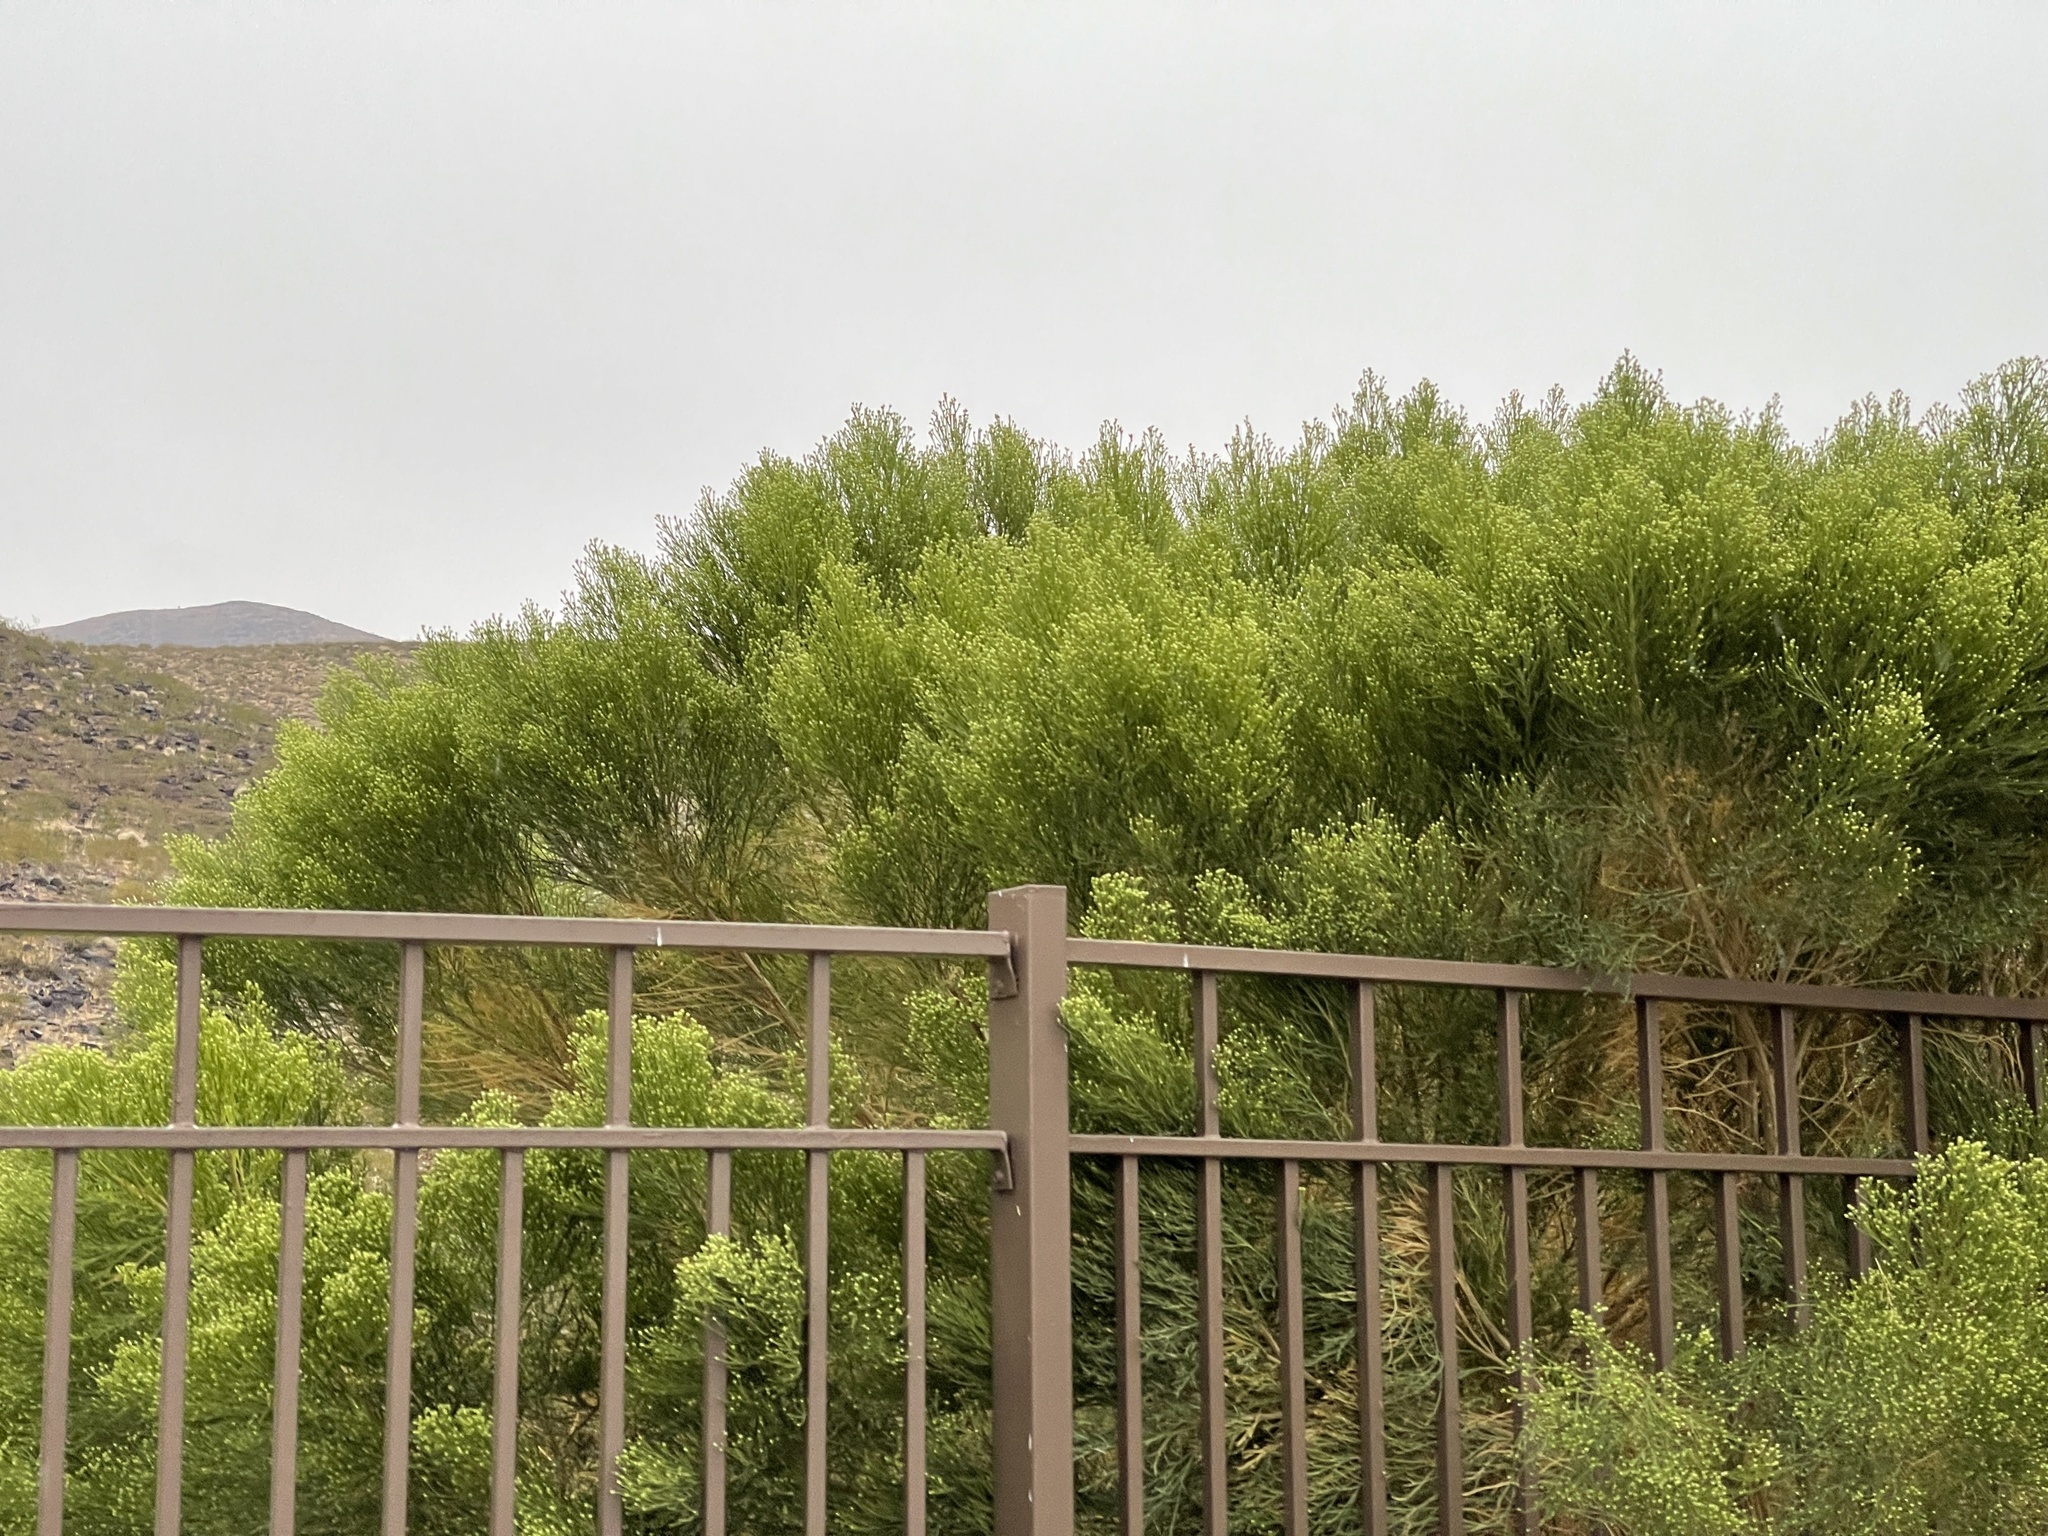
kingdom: Plantae
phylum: Tracheophyta
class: Magnoliopsida
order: Asterales
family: Asteraceae
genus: Baccharis
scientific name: Baccharis sarothroides
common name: Desert-broom
